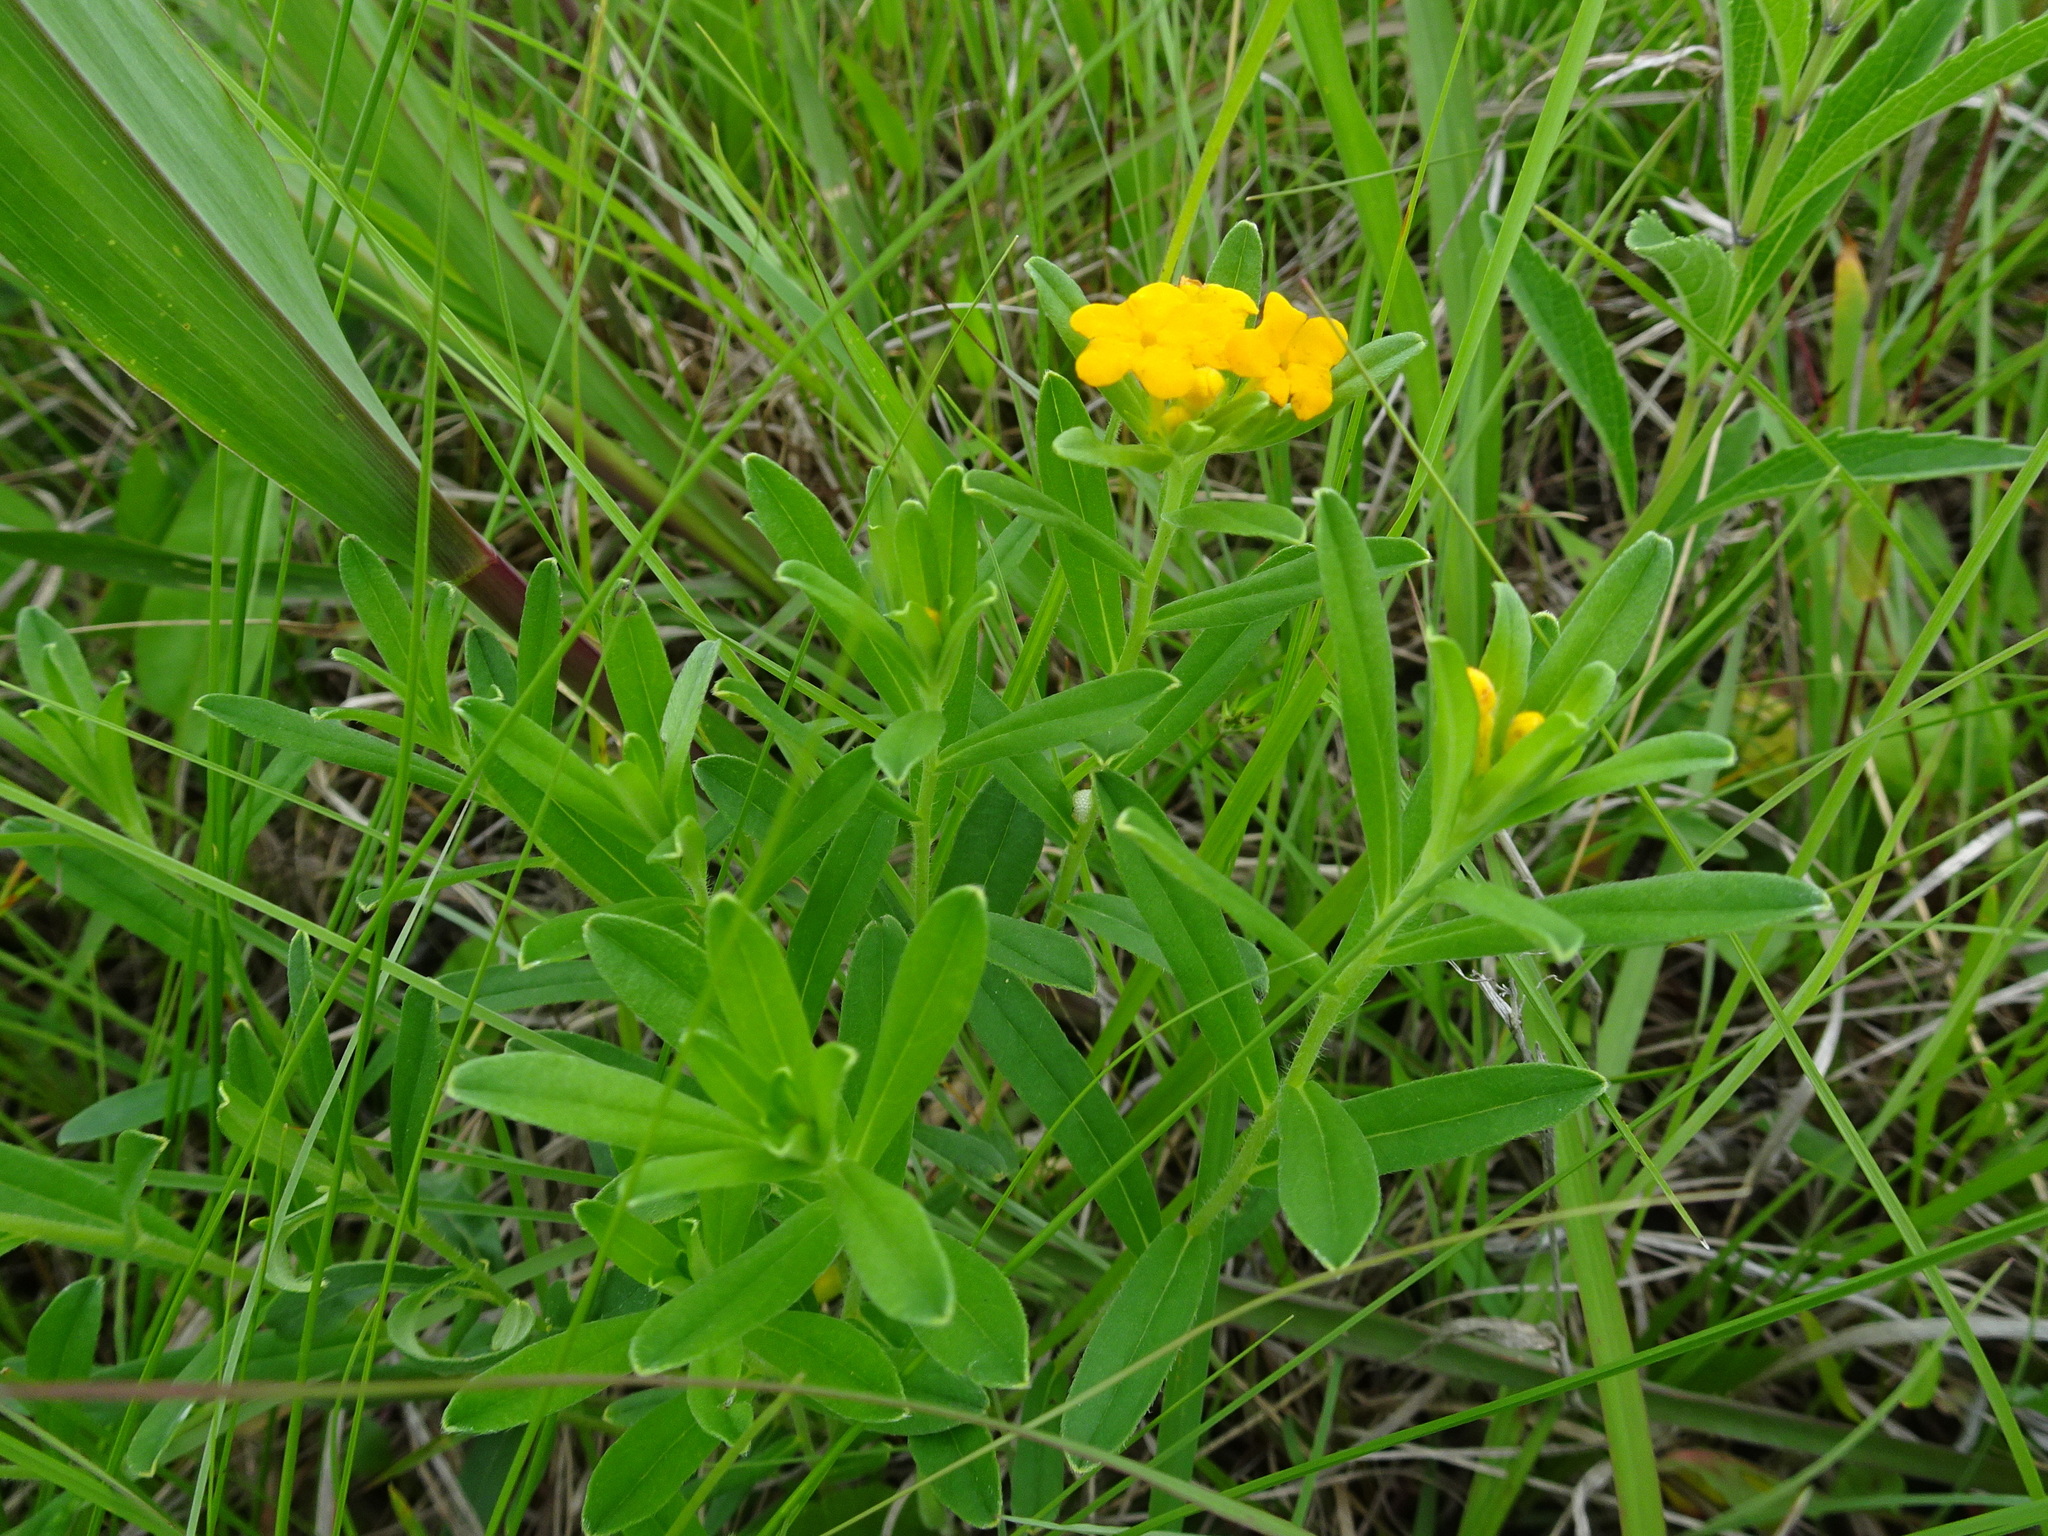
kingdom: Plantae
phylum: Tracheophyta
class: Magnoliopsida
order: Boraginales
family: Boraginaceae
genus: Lithospermum
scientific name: Lithospermum canescens
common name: Hoary puccoon
